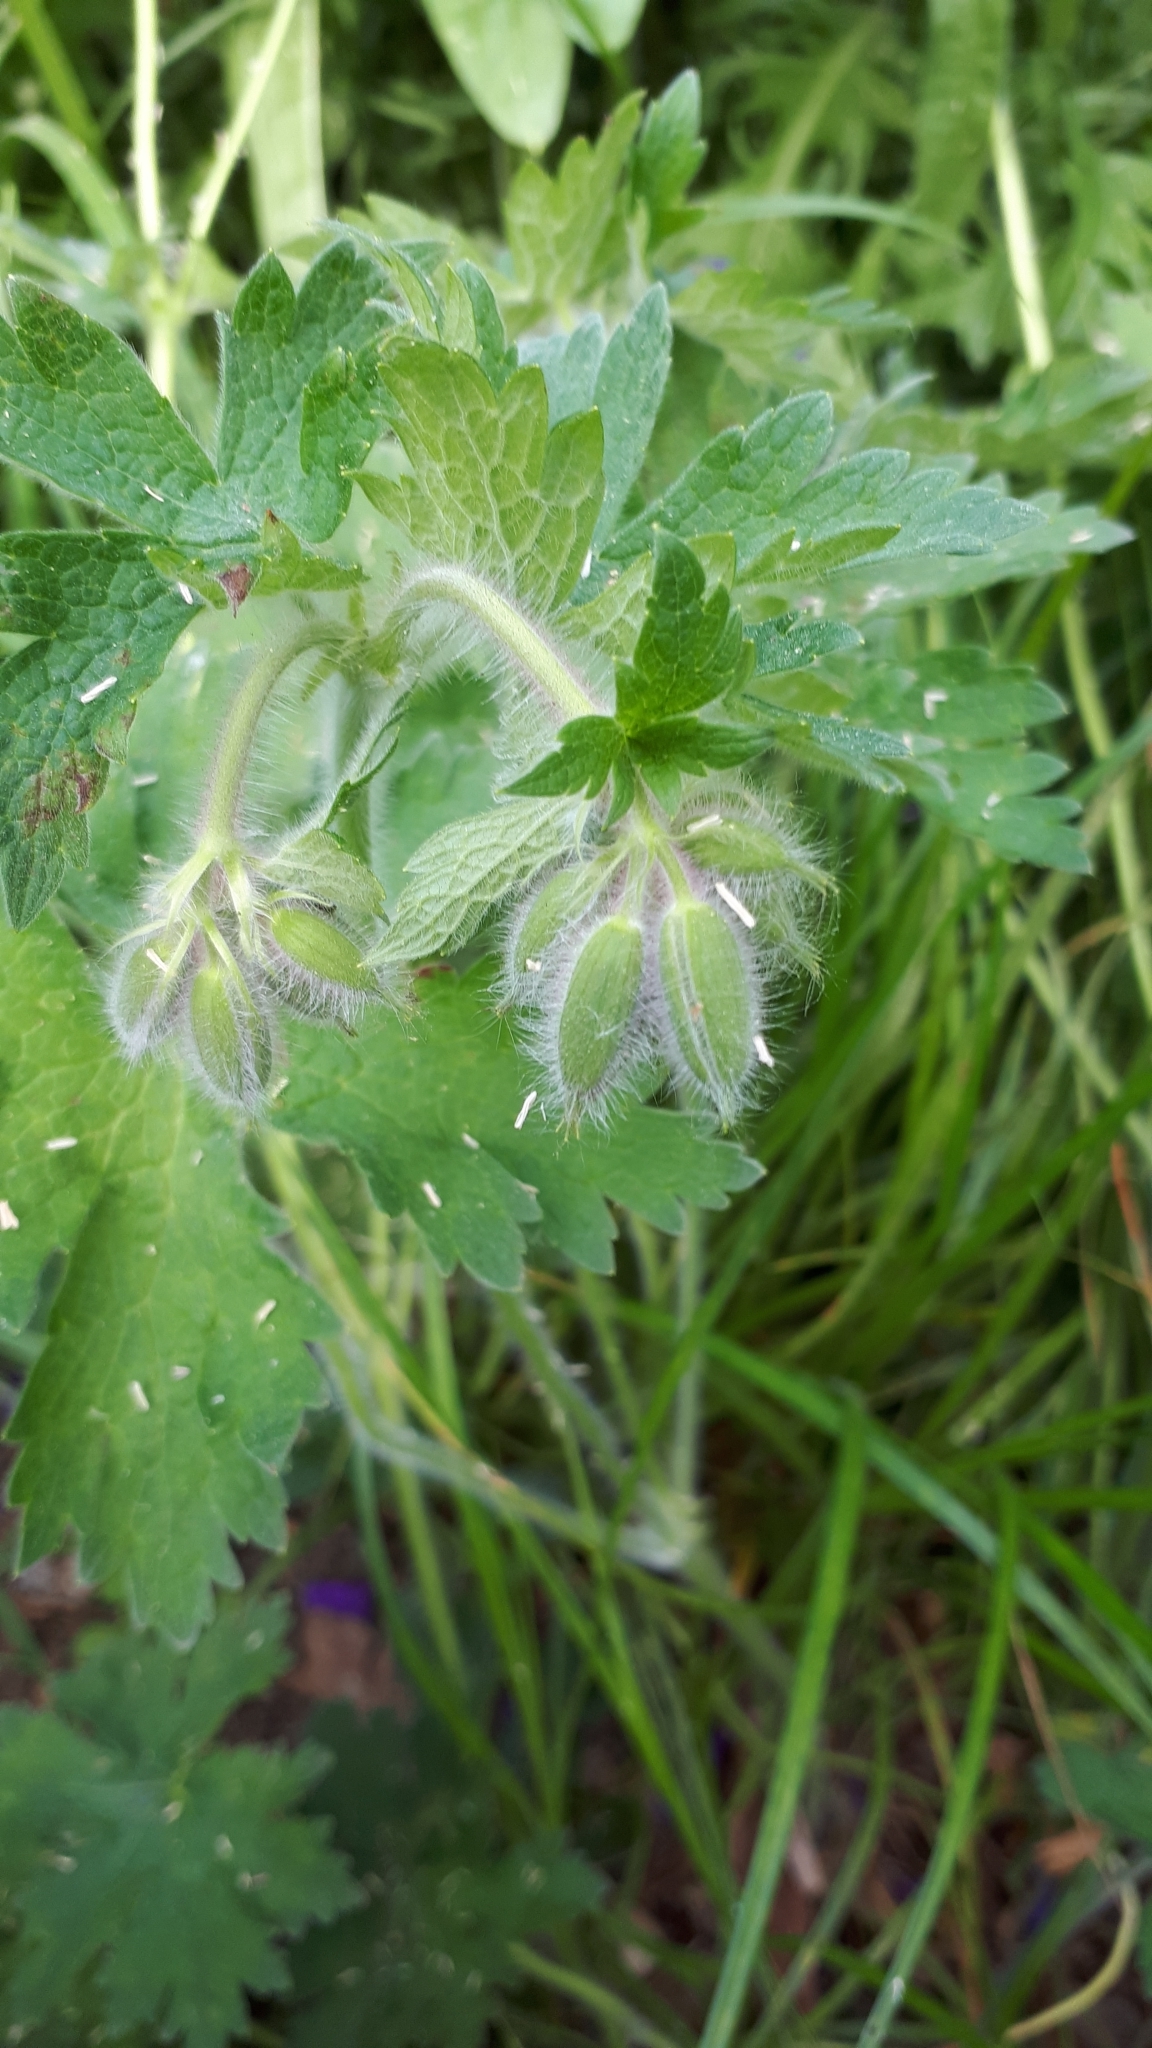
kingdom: Plantae
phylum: Tracheophyta
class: Magnoliopsida
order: Geraniales
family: Geraniaceae
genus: Geranium
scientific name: Geranium sylvaticum
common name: Wood crane's-bill
